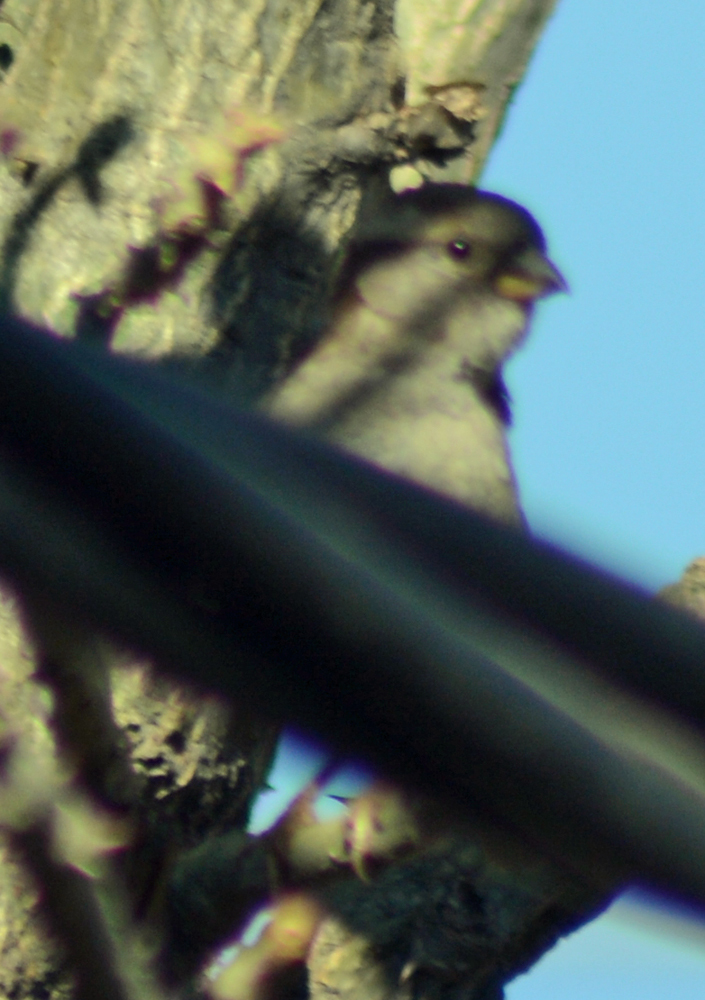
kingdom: Animalia
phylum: Chordata
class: Aves
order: Passeriformes
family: Passeridae
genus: Passer
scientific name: Passer domesticus
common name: House sparrow
